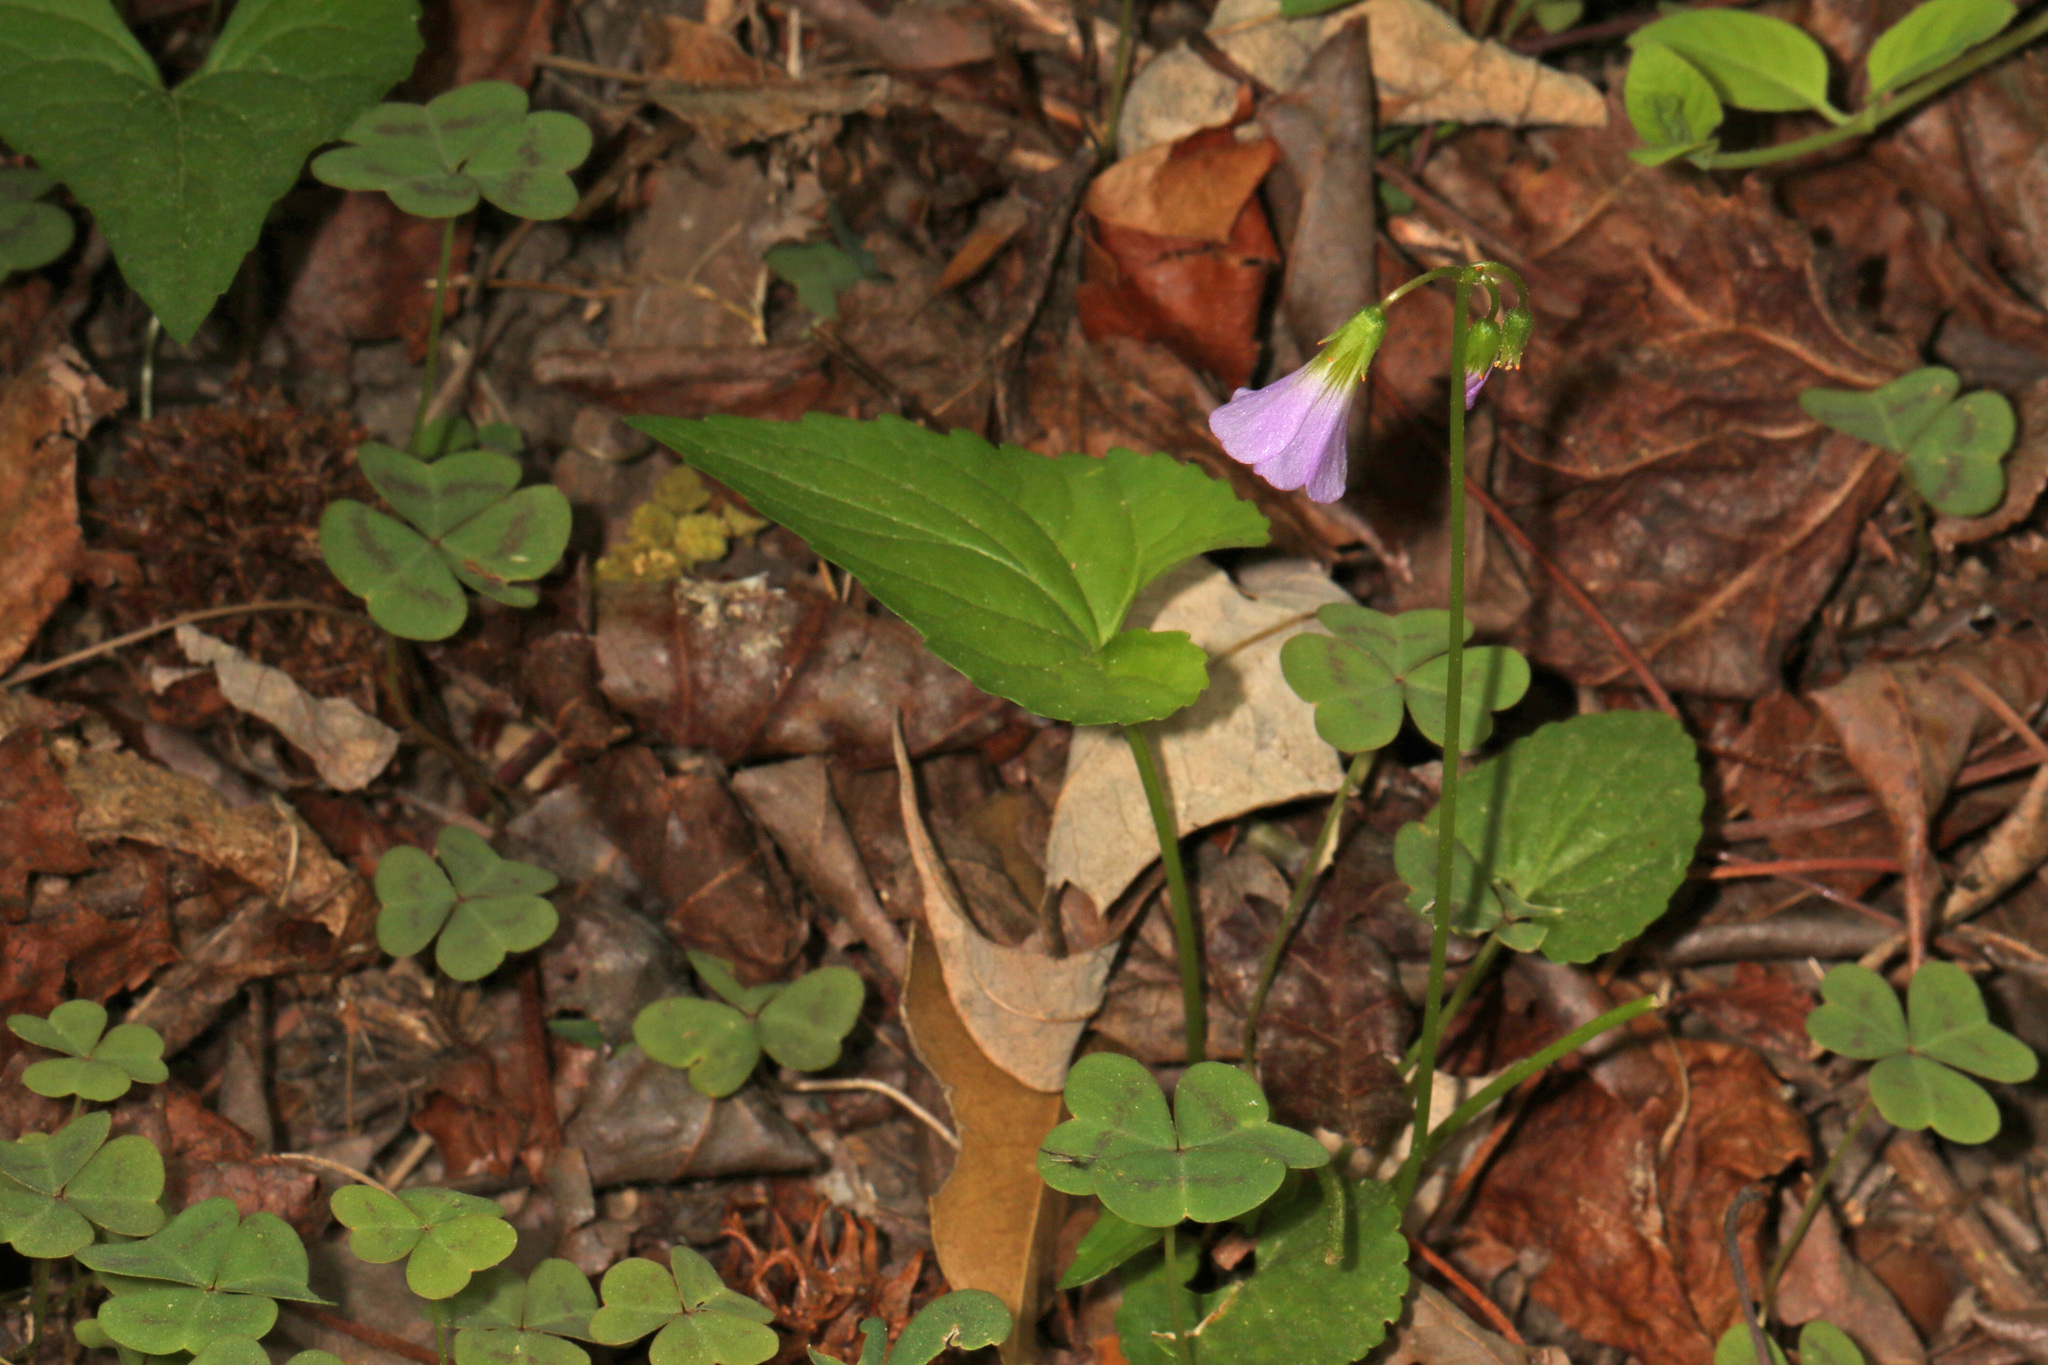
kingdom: Plantae
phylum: Tracheophyta
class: Magnoliopsida
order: Oxalidales
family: Oxalidaceae
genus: Oxalis
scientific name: Oxalis violacea
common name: Violet wood-sorrel
